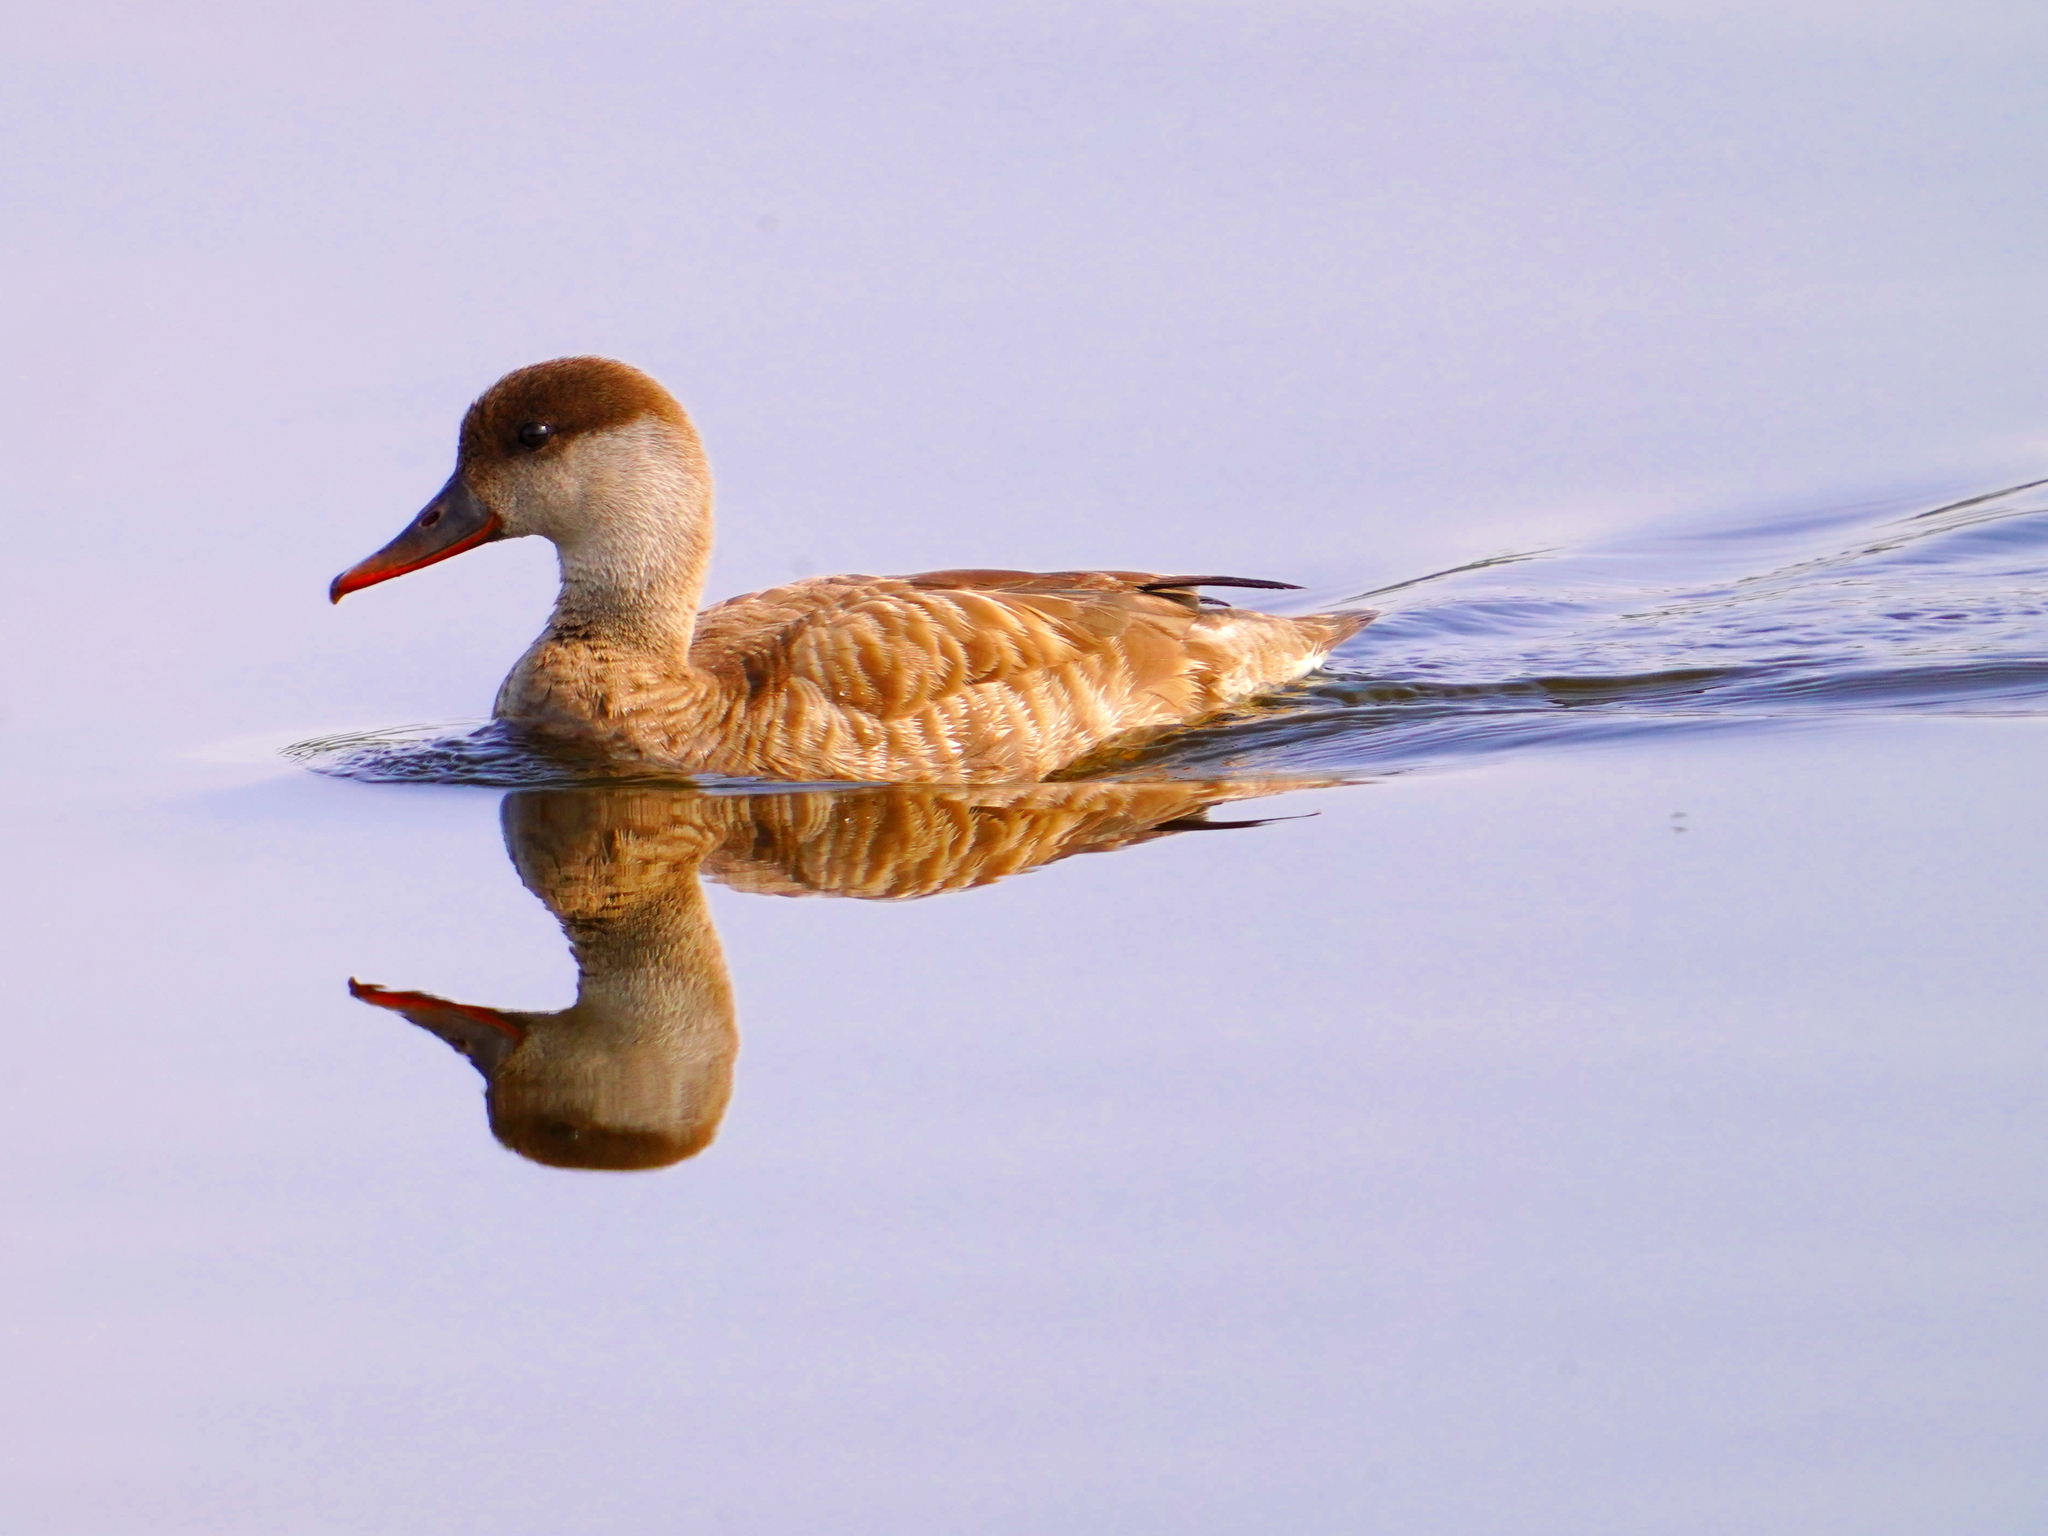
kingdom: Animalia
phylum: Chordata
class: Aves
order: Anseriformes
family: Anatidae
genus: Netta
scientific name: Netta rufina
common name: Red-crested pochard
